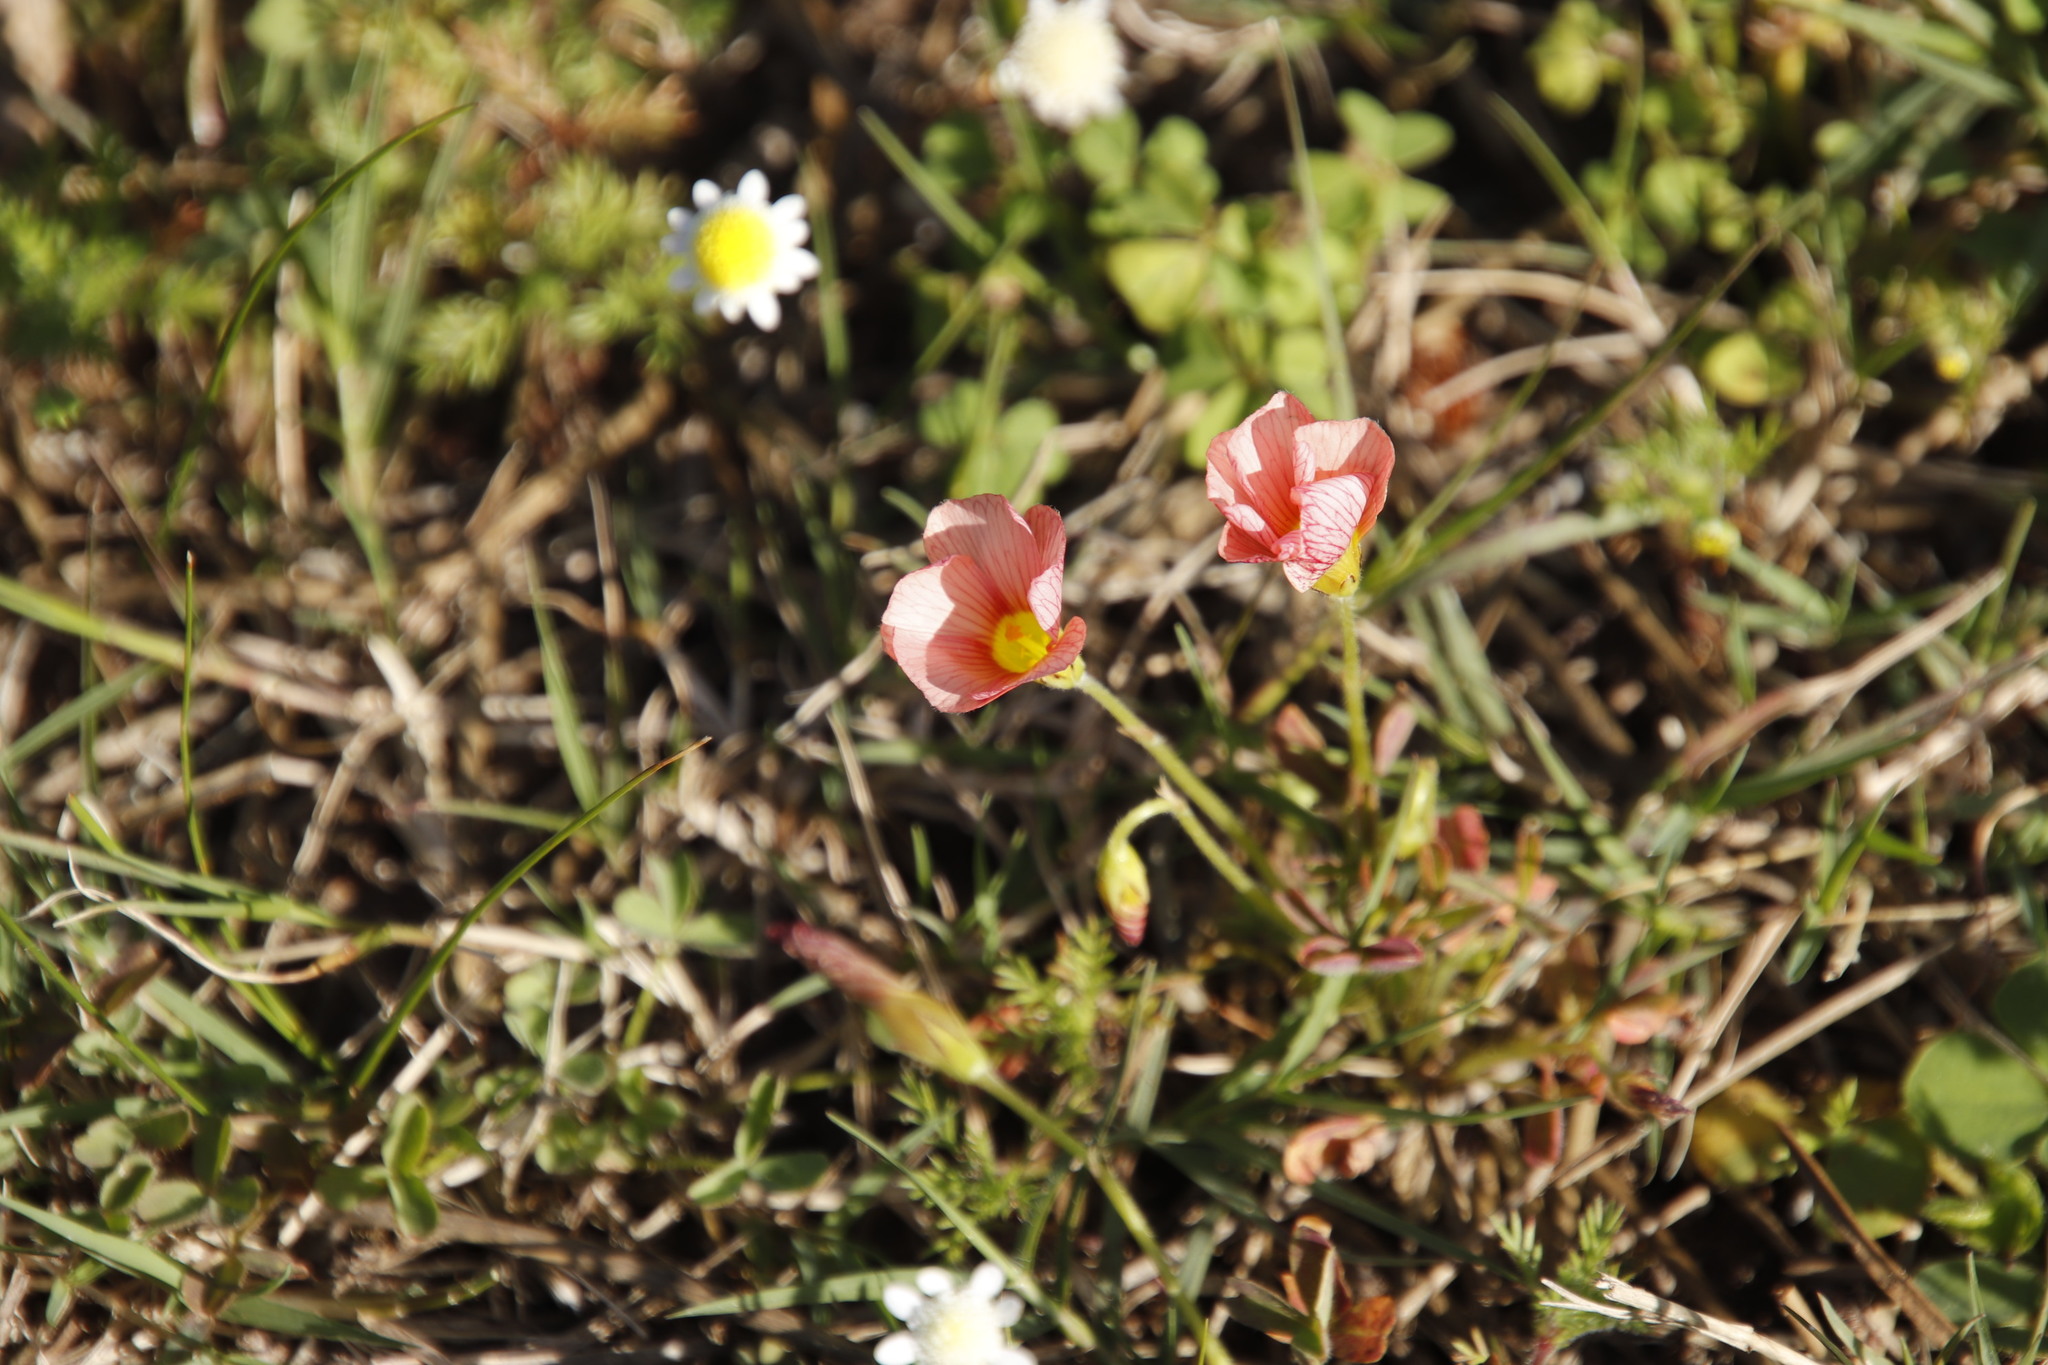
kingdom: Plantae
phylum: Tracheophyta
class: Magnoliopsida
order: Oxalidales
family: Oxalidaceae
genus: Oxalis
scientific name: Oxalis obtusa
